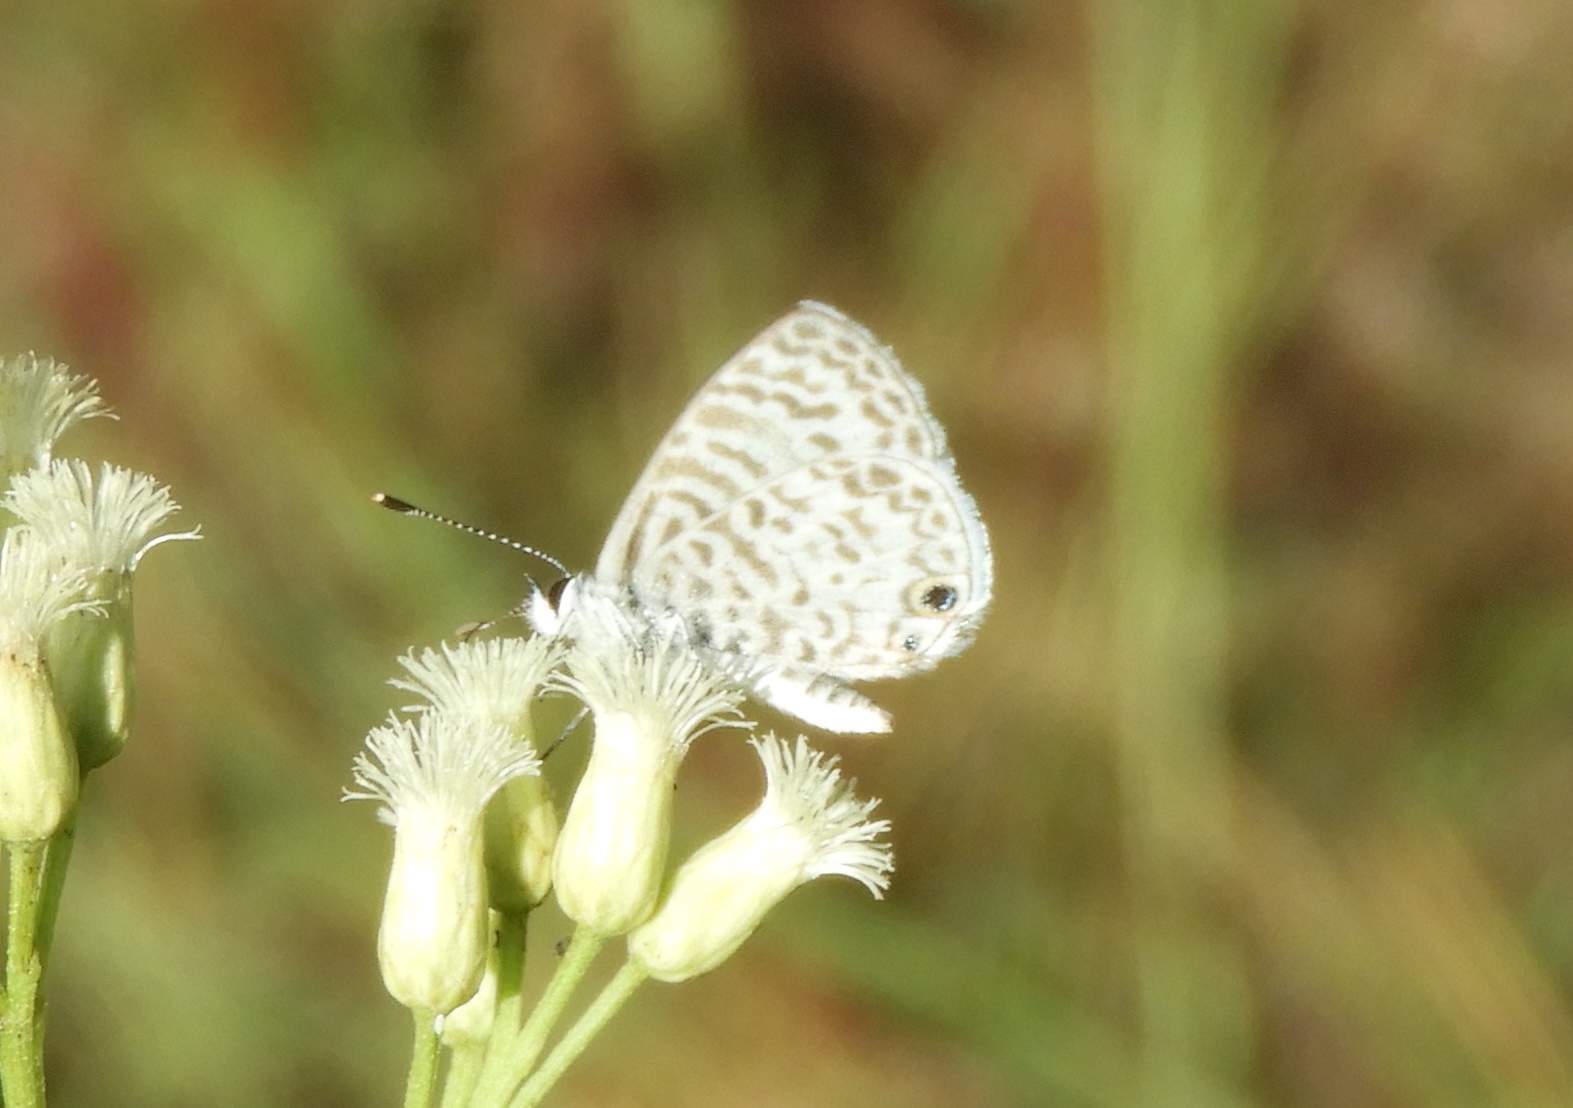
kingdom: Animalia
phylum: Arthropoda
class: Insecta
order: Lepidoptera
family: Lycaenidae
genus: Leptotes
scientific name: Leptotes theonus
